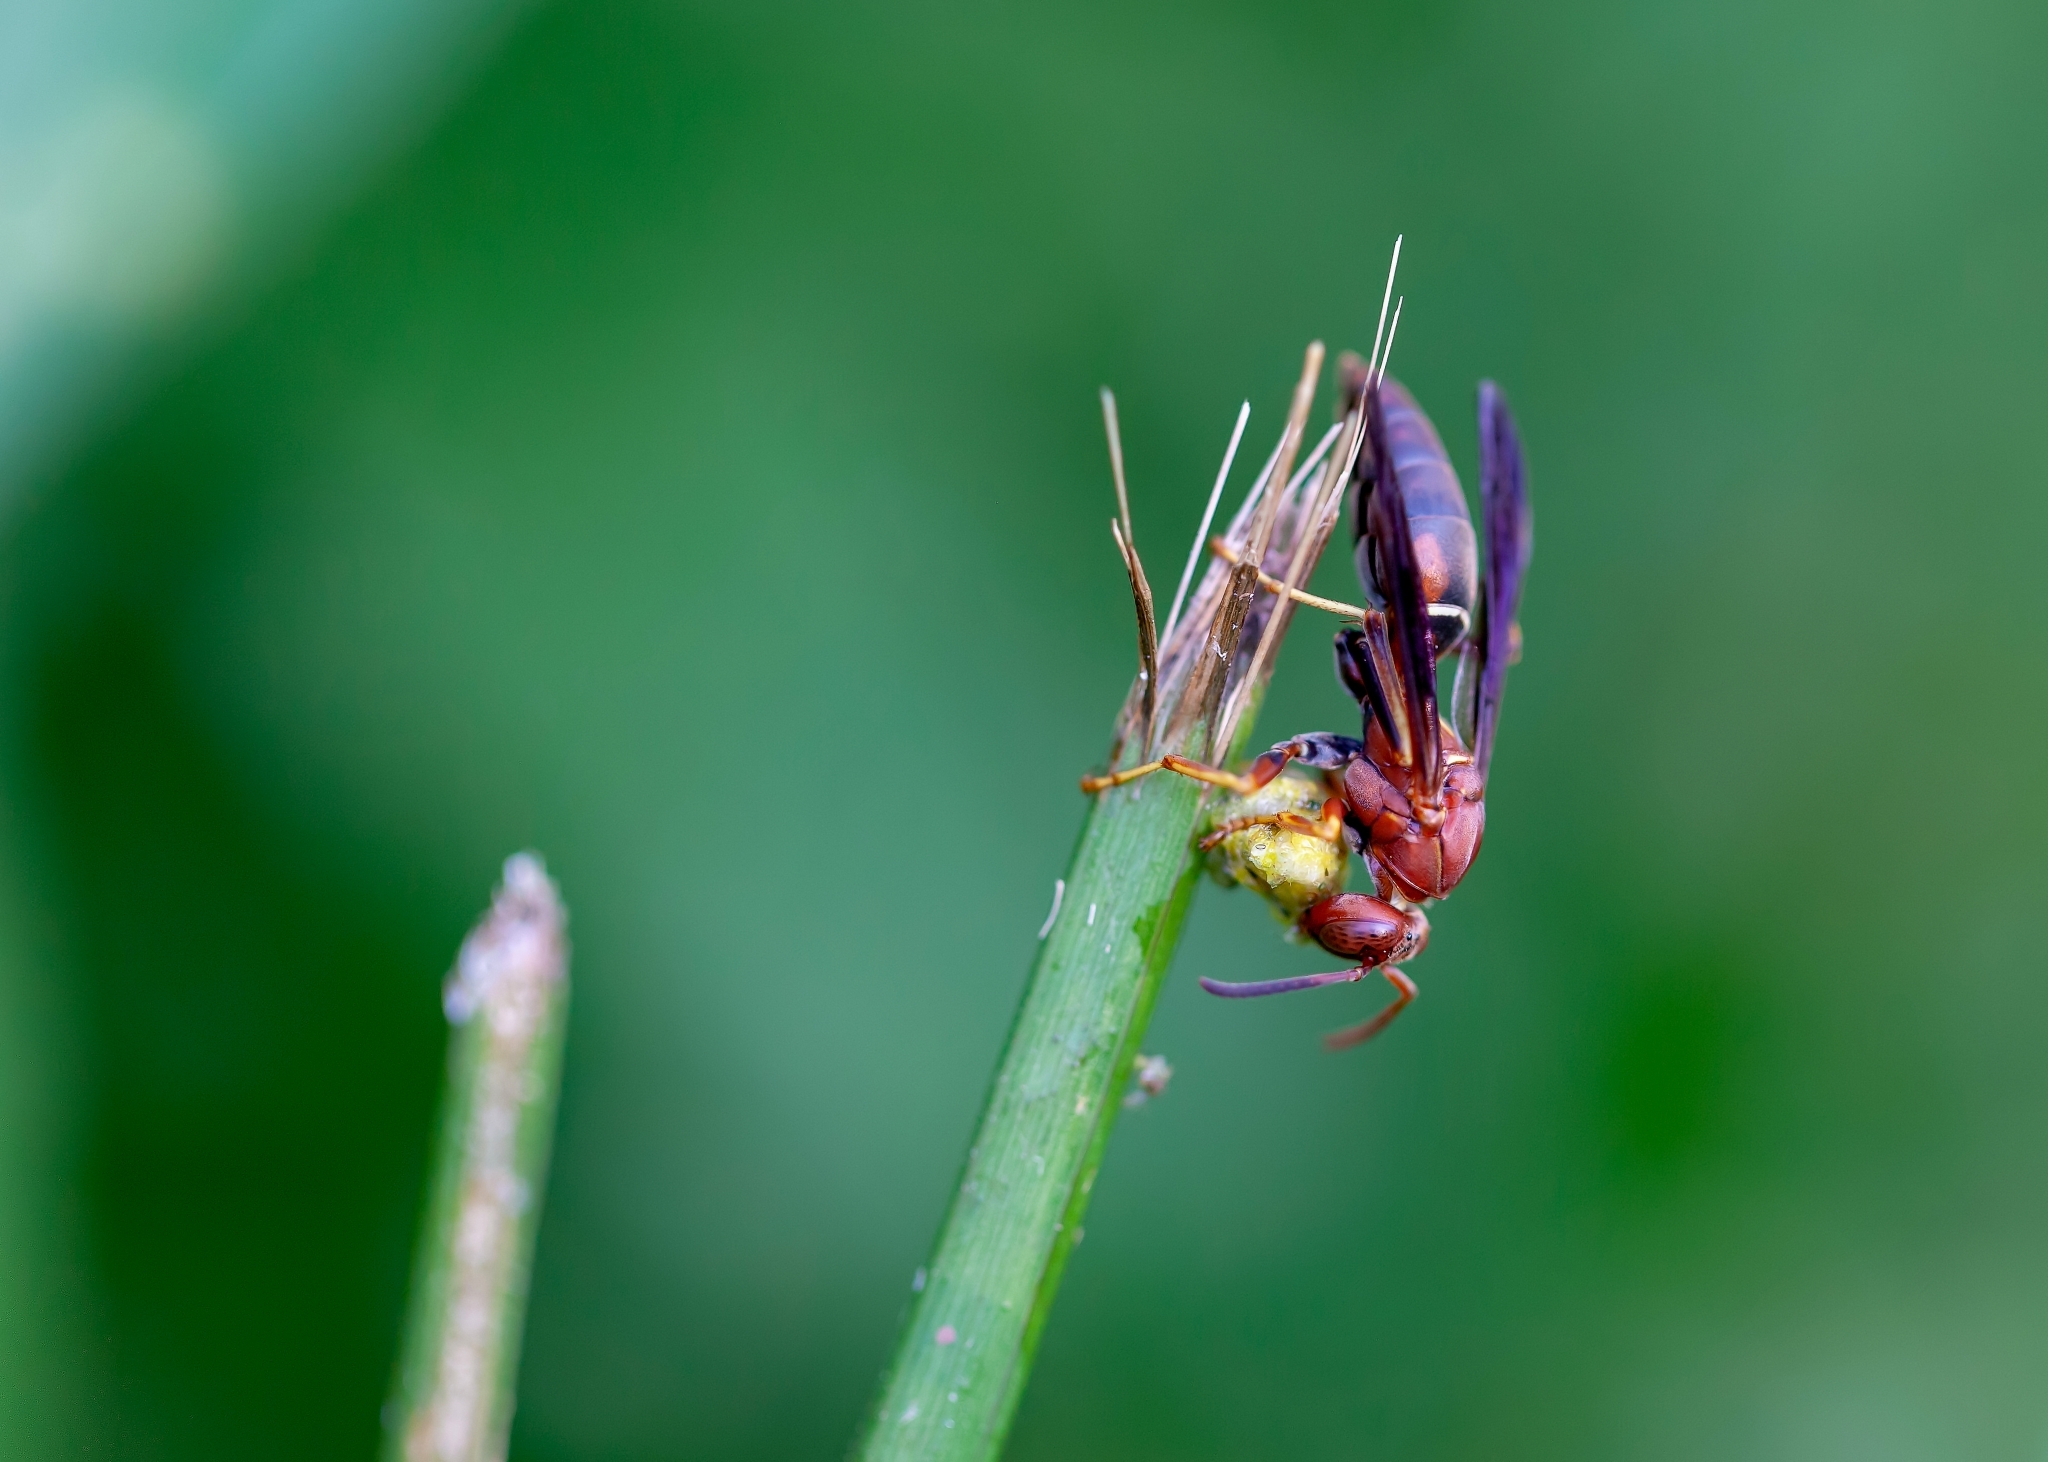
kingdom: Animalia
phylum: Arthropoda
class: Insecta
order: Hymenoptera
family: Eumenidae
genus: Polistes
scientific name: Polistes fuscatus
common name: Dark paper wasp
